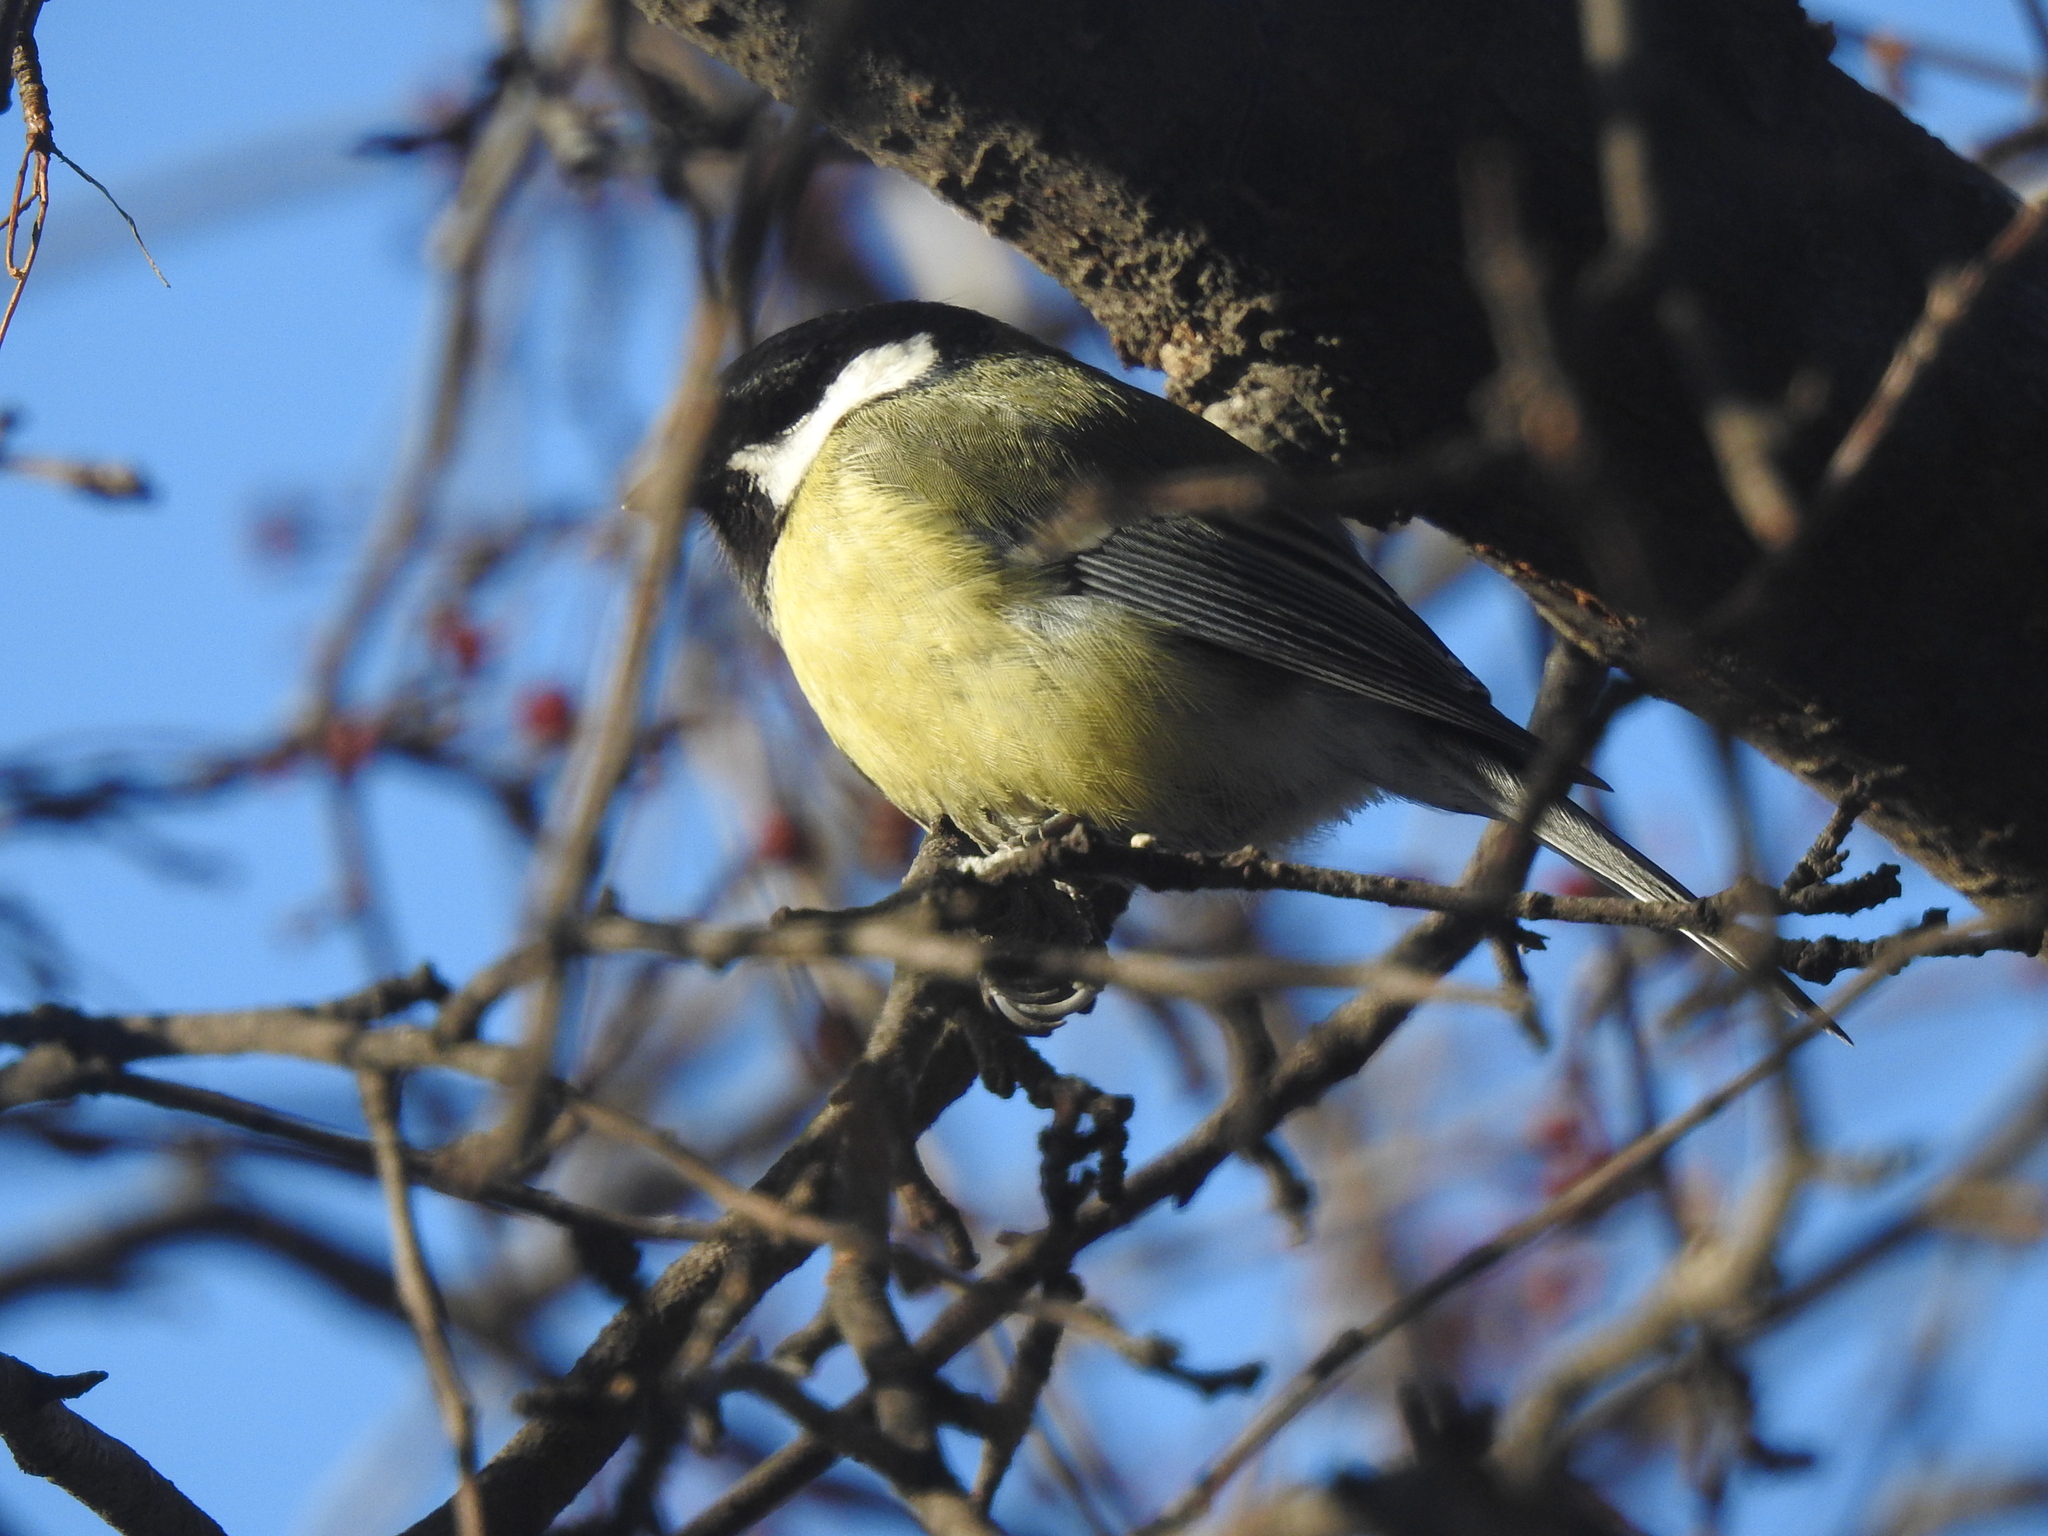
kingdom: Animalia
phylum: Chordata
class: Aves
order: Passeriformes
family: Paridae
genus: Parus
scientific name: Parus major
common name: Great tit
